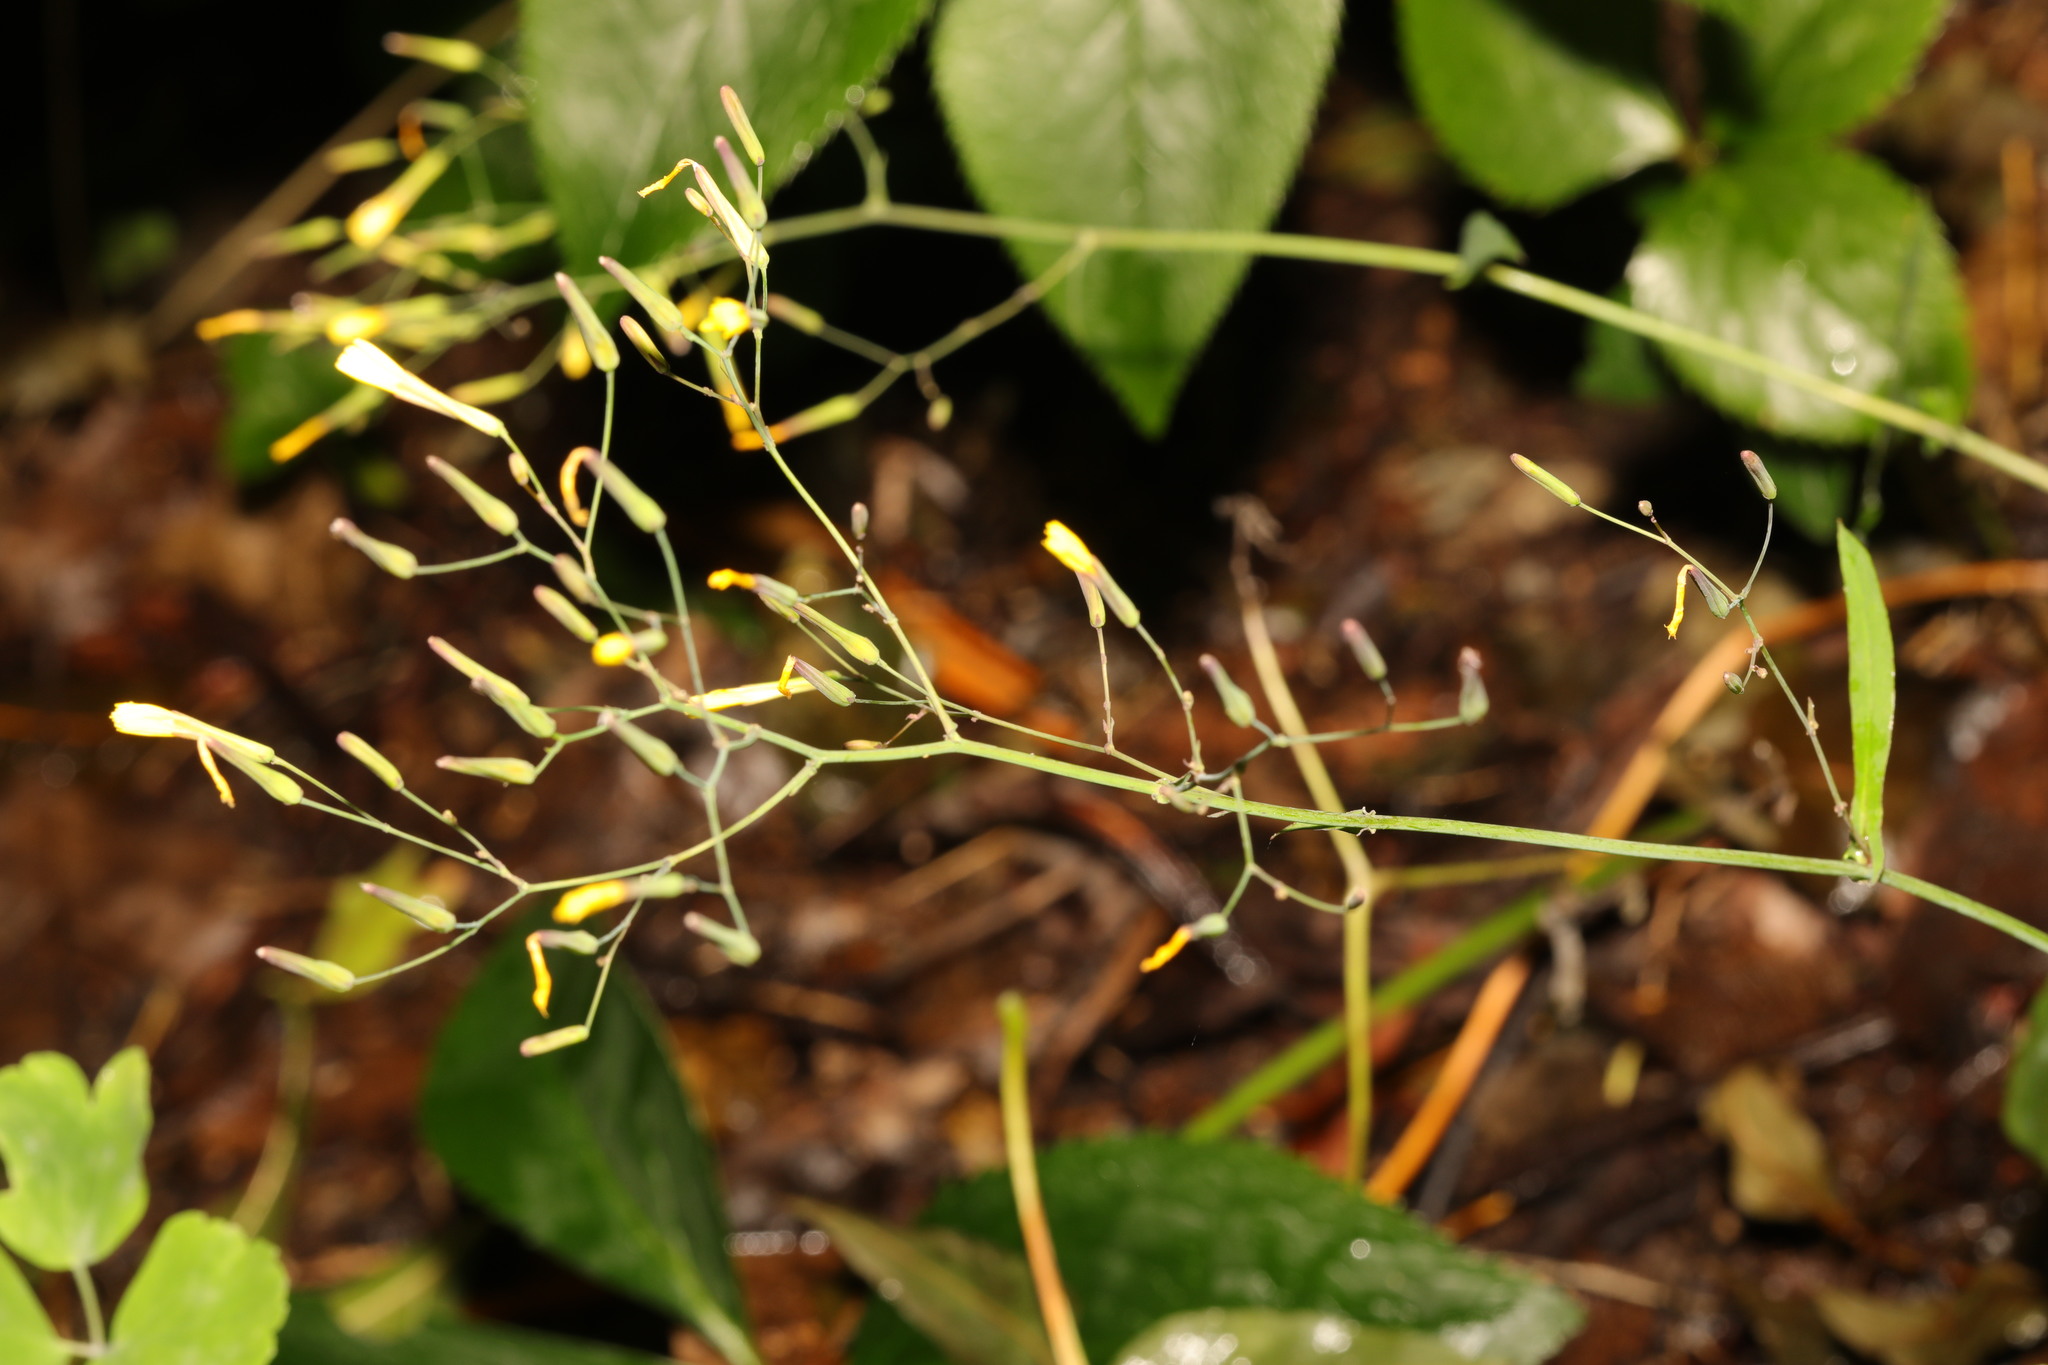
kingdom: Plantae
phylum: Tracheophyta
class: Magnoliopsida
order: Asterales
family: Asteraceae
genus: Mycelis
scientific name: Mycelis muralis
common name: Wall lettuce
